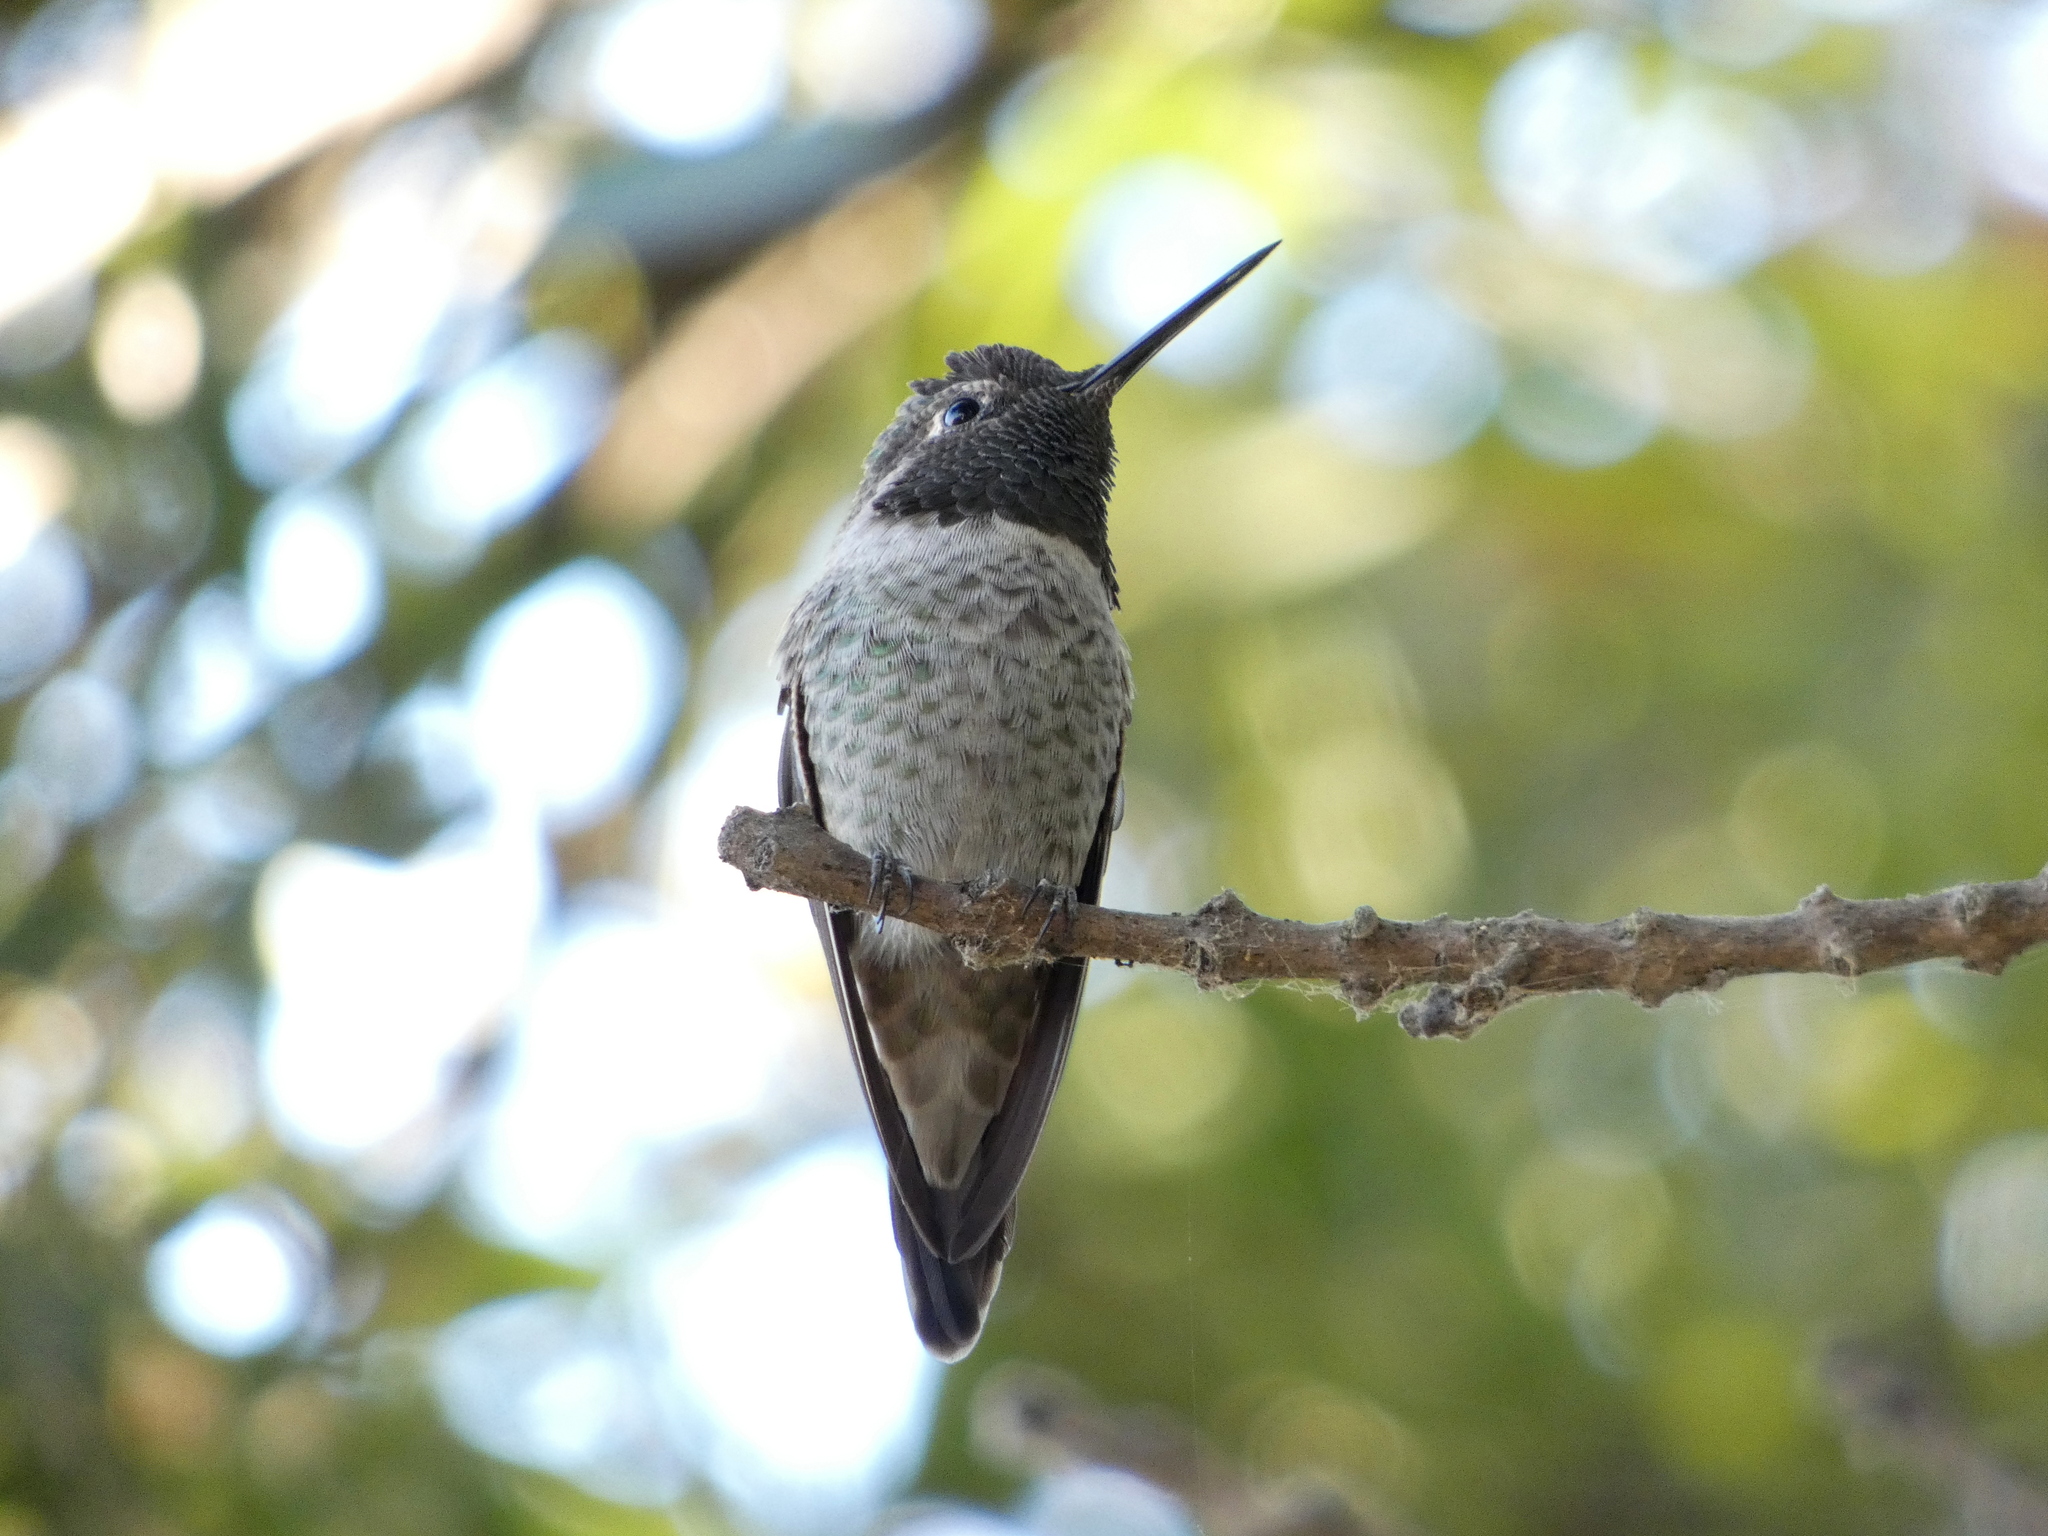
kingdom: Animalia
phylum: Chordata
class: Aves
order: Apodiformes
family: Trochilidae
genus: Calypte
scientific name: Calypte anna
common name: Anna's hummingbird
